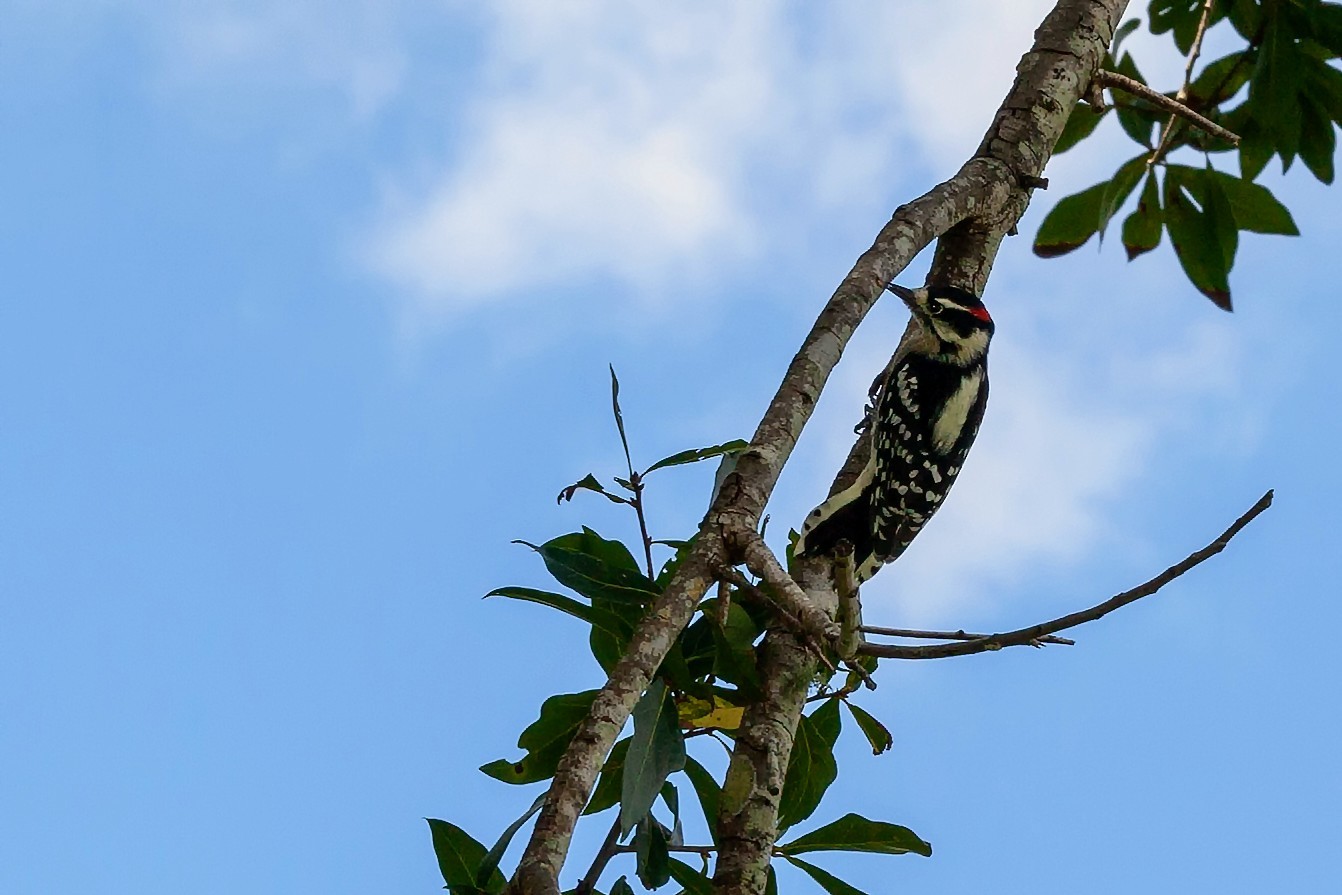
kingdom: Animalia
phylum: Chordata
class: Aves
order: Piciformes
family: Picidae
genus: Dryobates
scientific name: Dryobates pubescens
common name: Downy woodpecker
